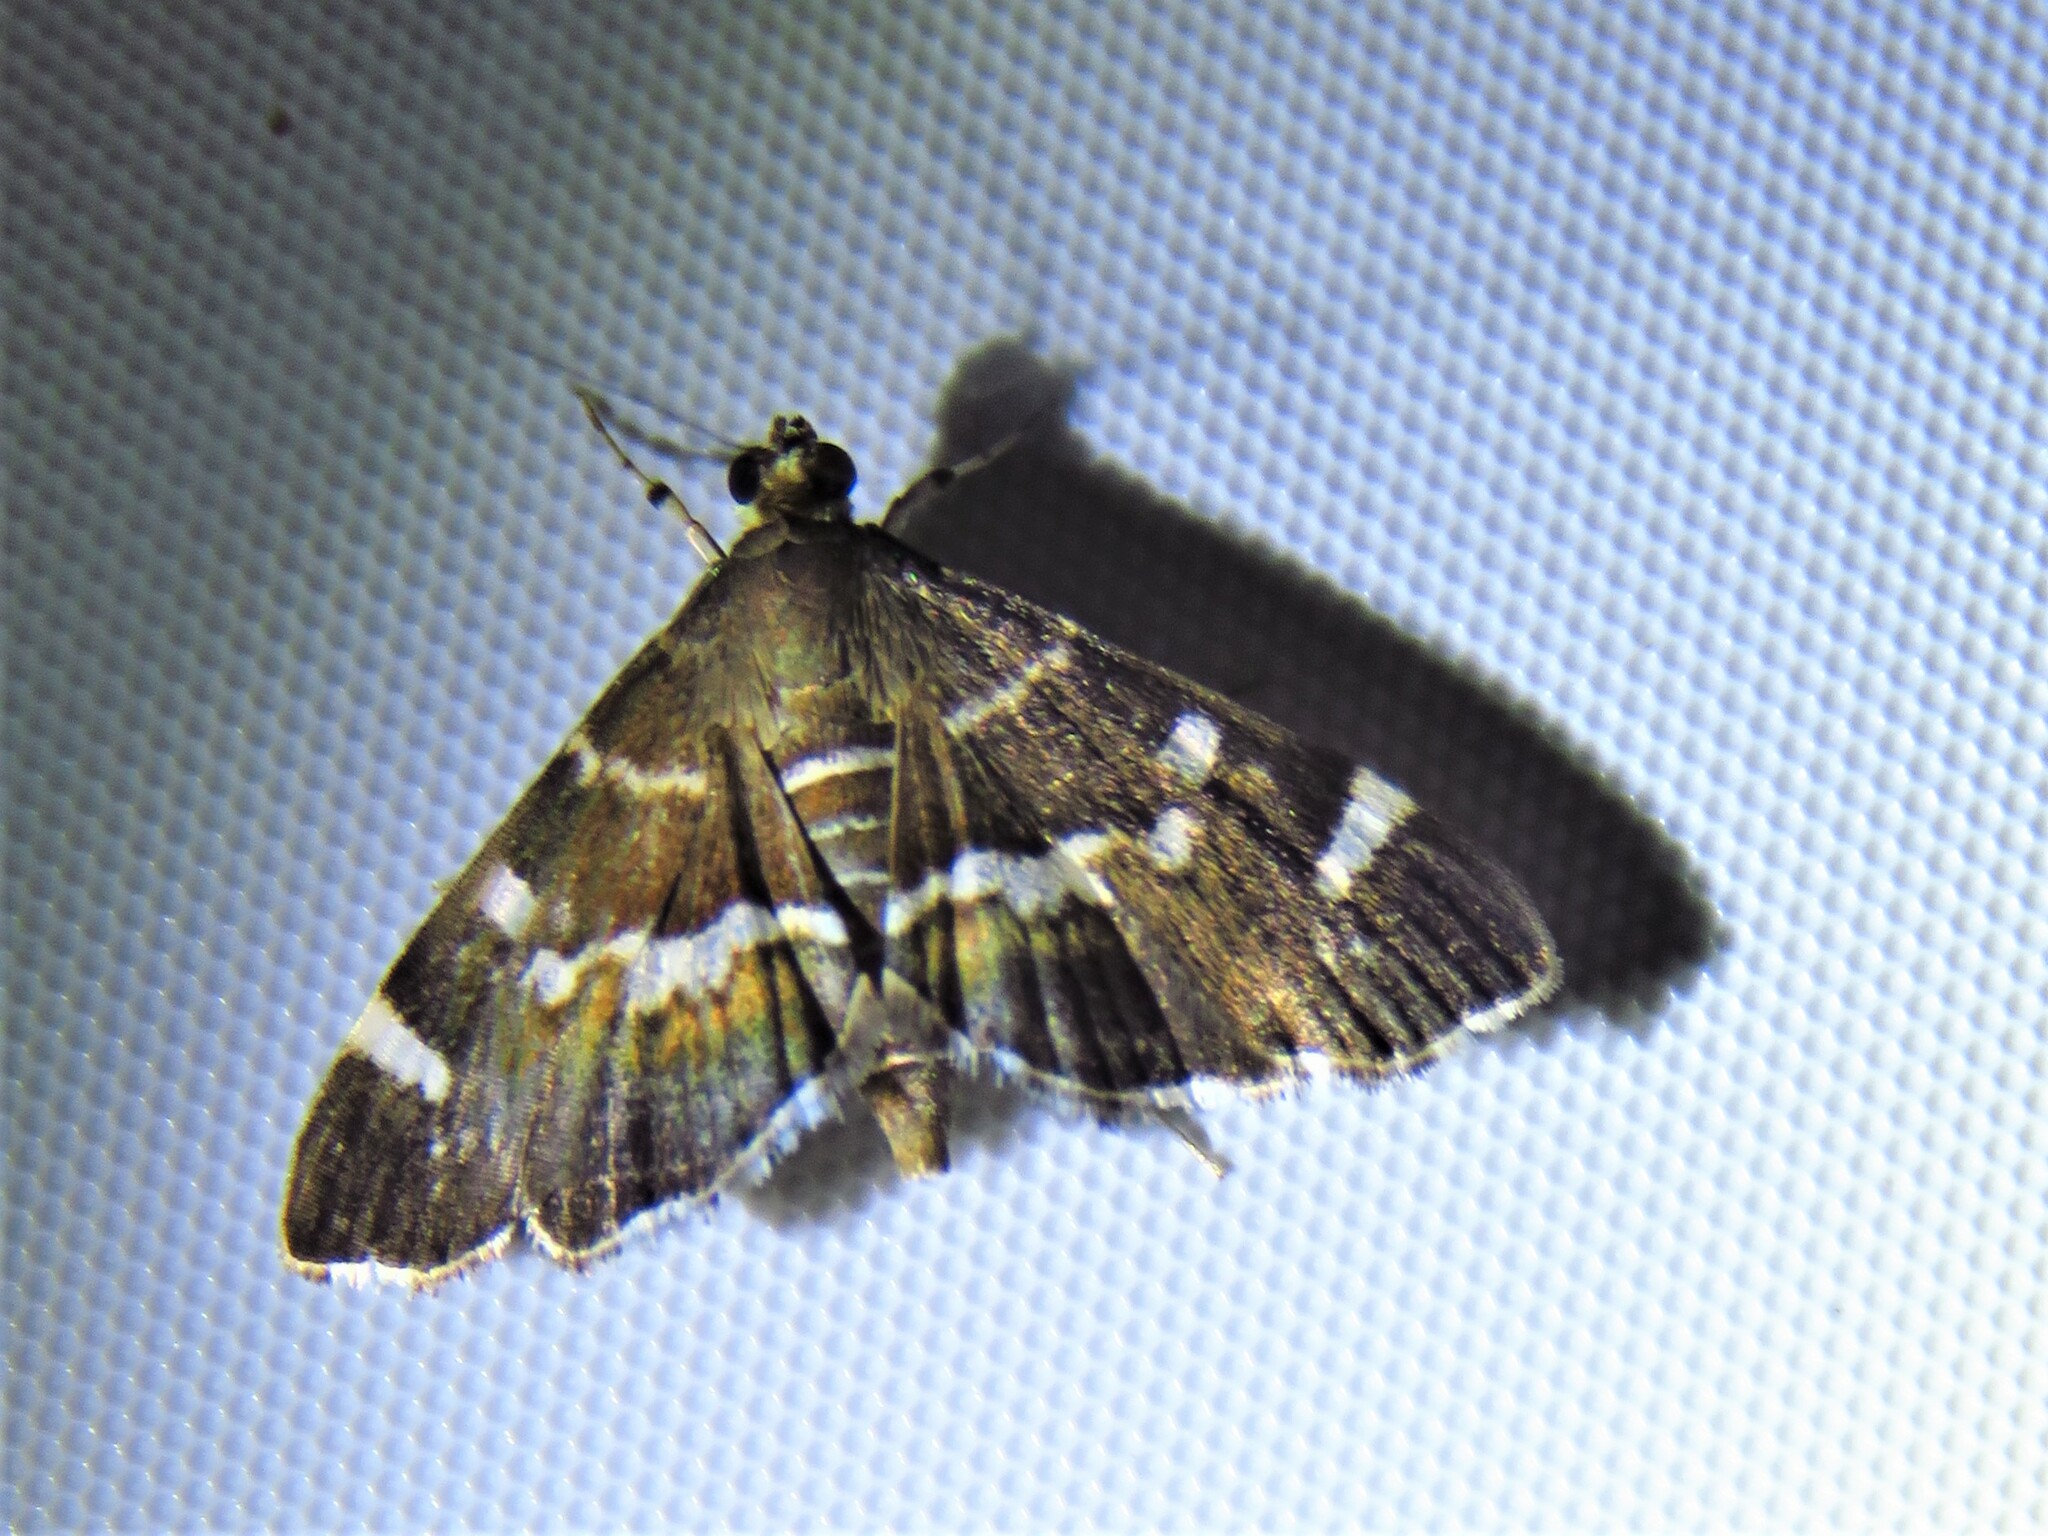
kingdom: Animalia
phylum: Arthropoda
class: Insecta
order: Lepidoptera
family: Crambidae
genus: Hymenia
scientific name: Hymenia perspectalis
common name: Spotted beet webworm
